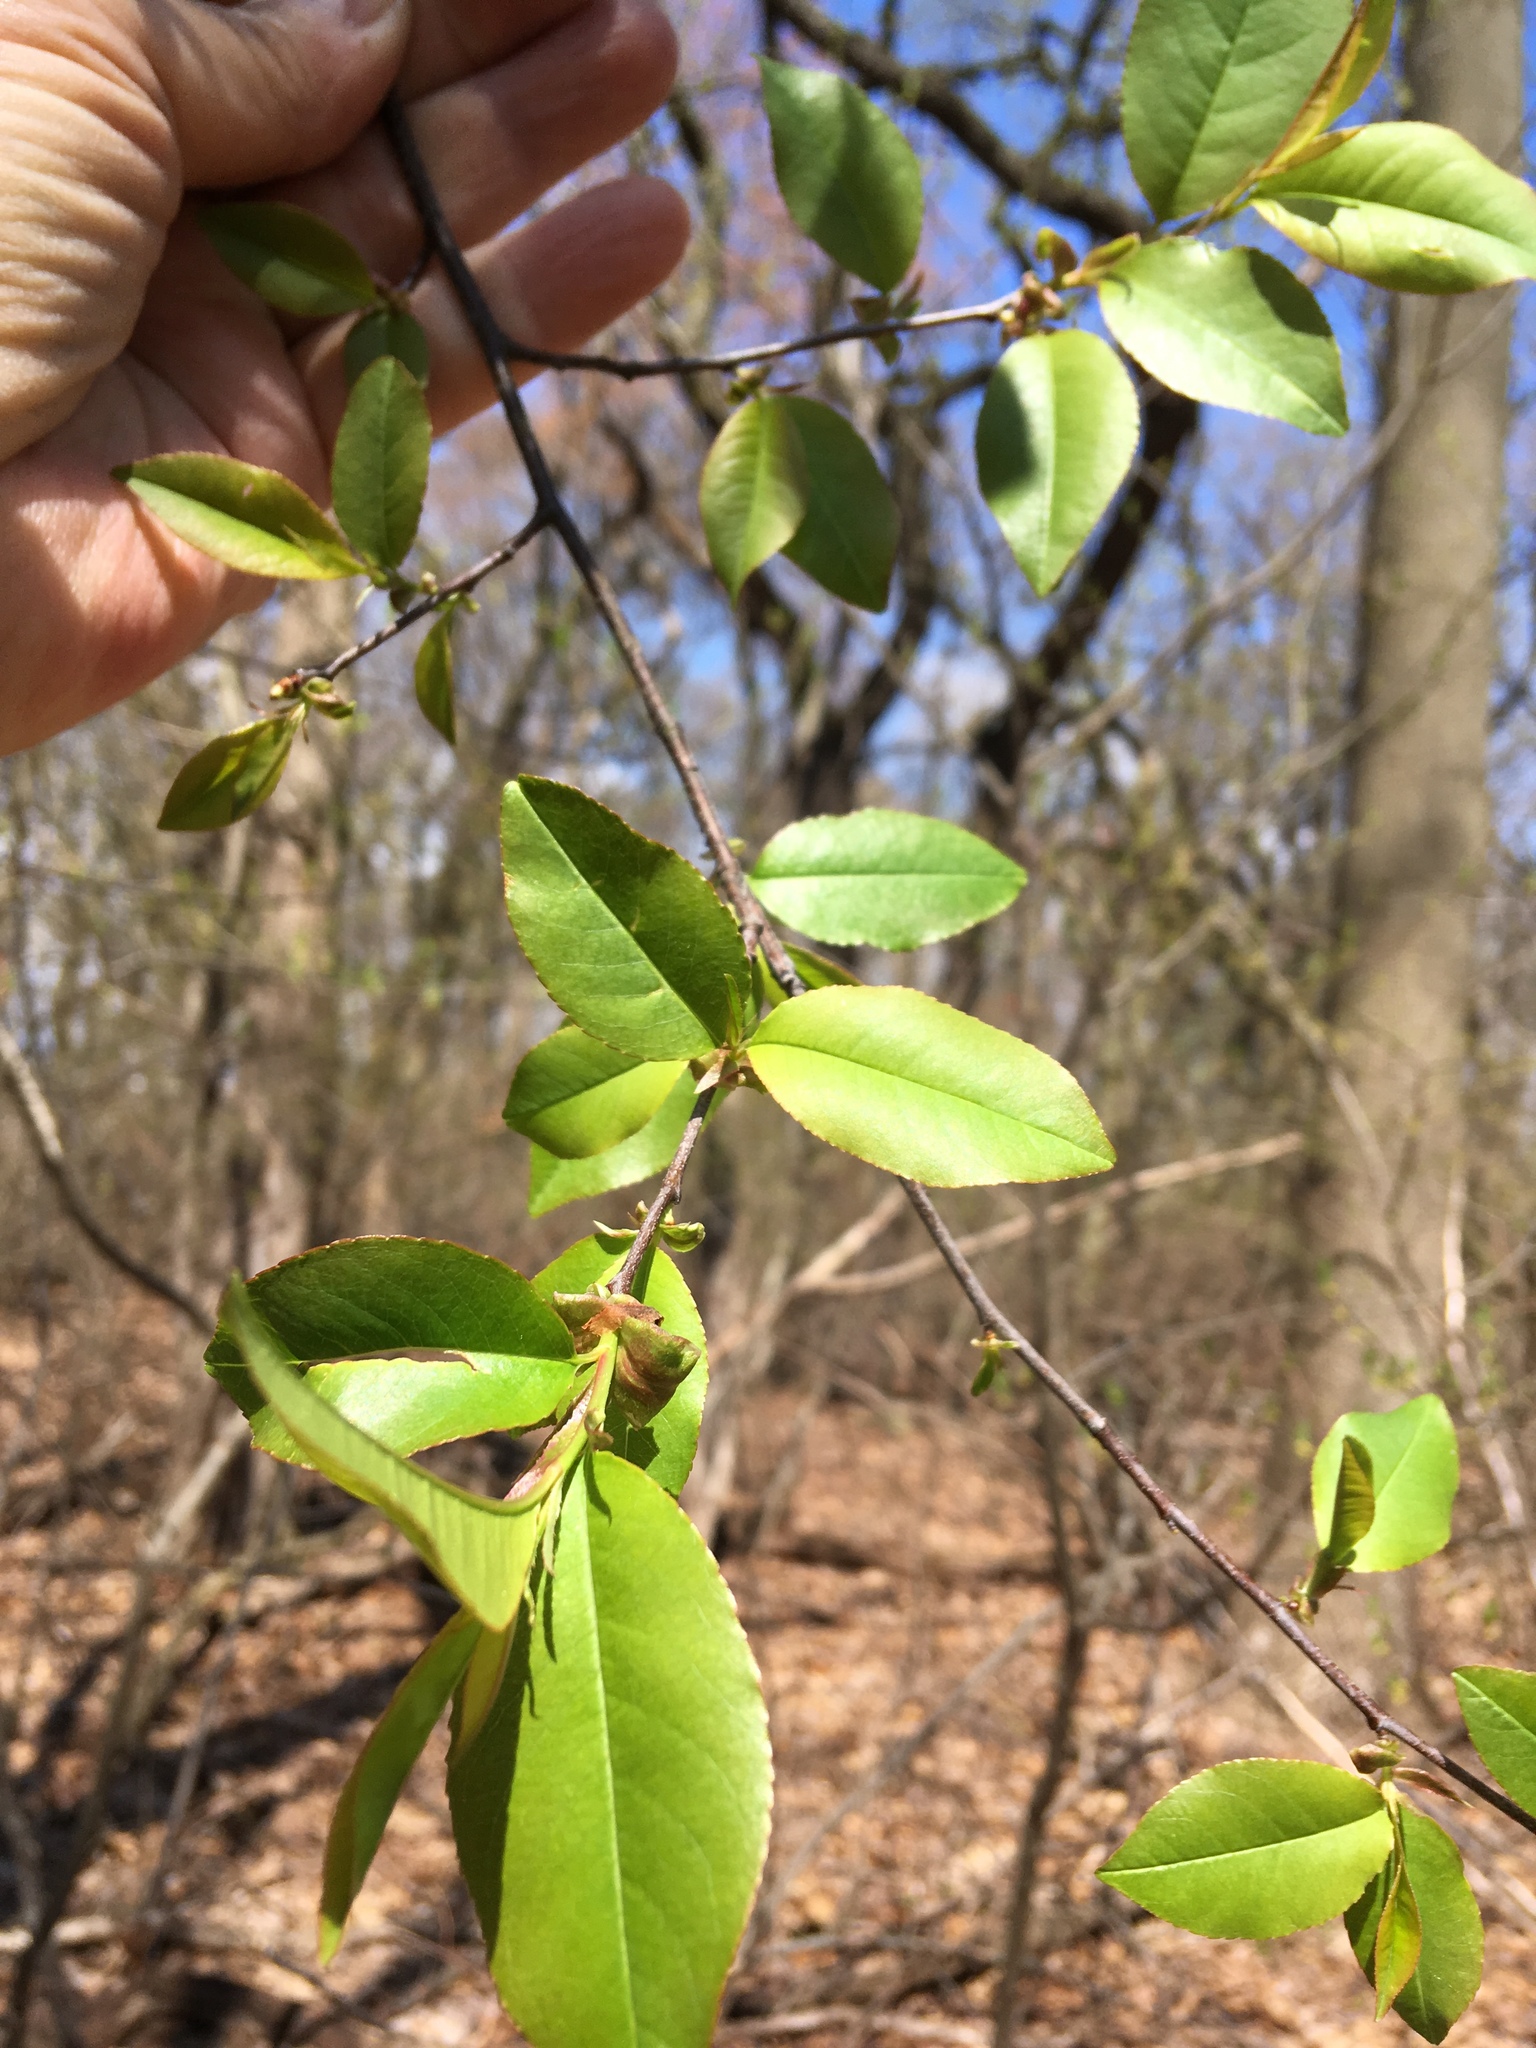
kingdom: Plantae
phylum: Tracheophyta
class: Magnoliopsida
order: Rosales
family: Rosaceae
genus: Prunus
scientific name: Prunus serotina
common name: Black cherry
